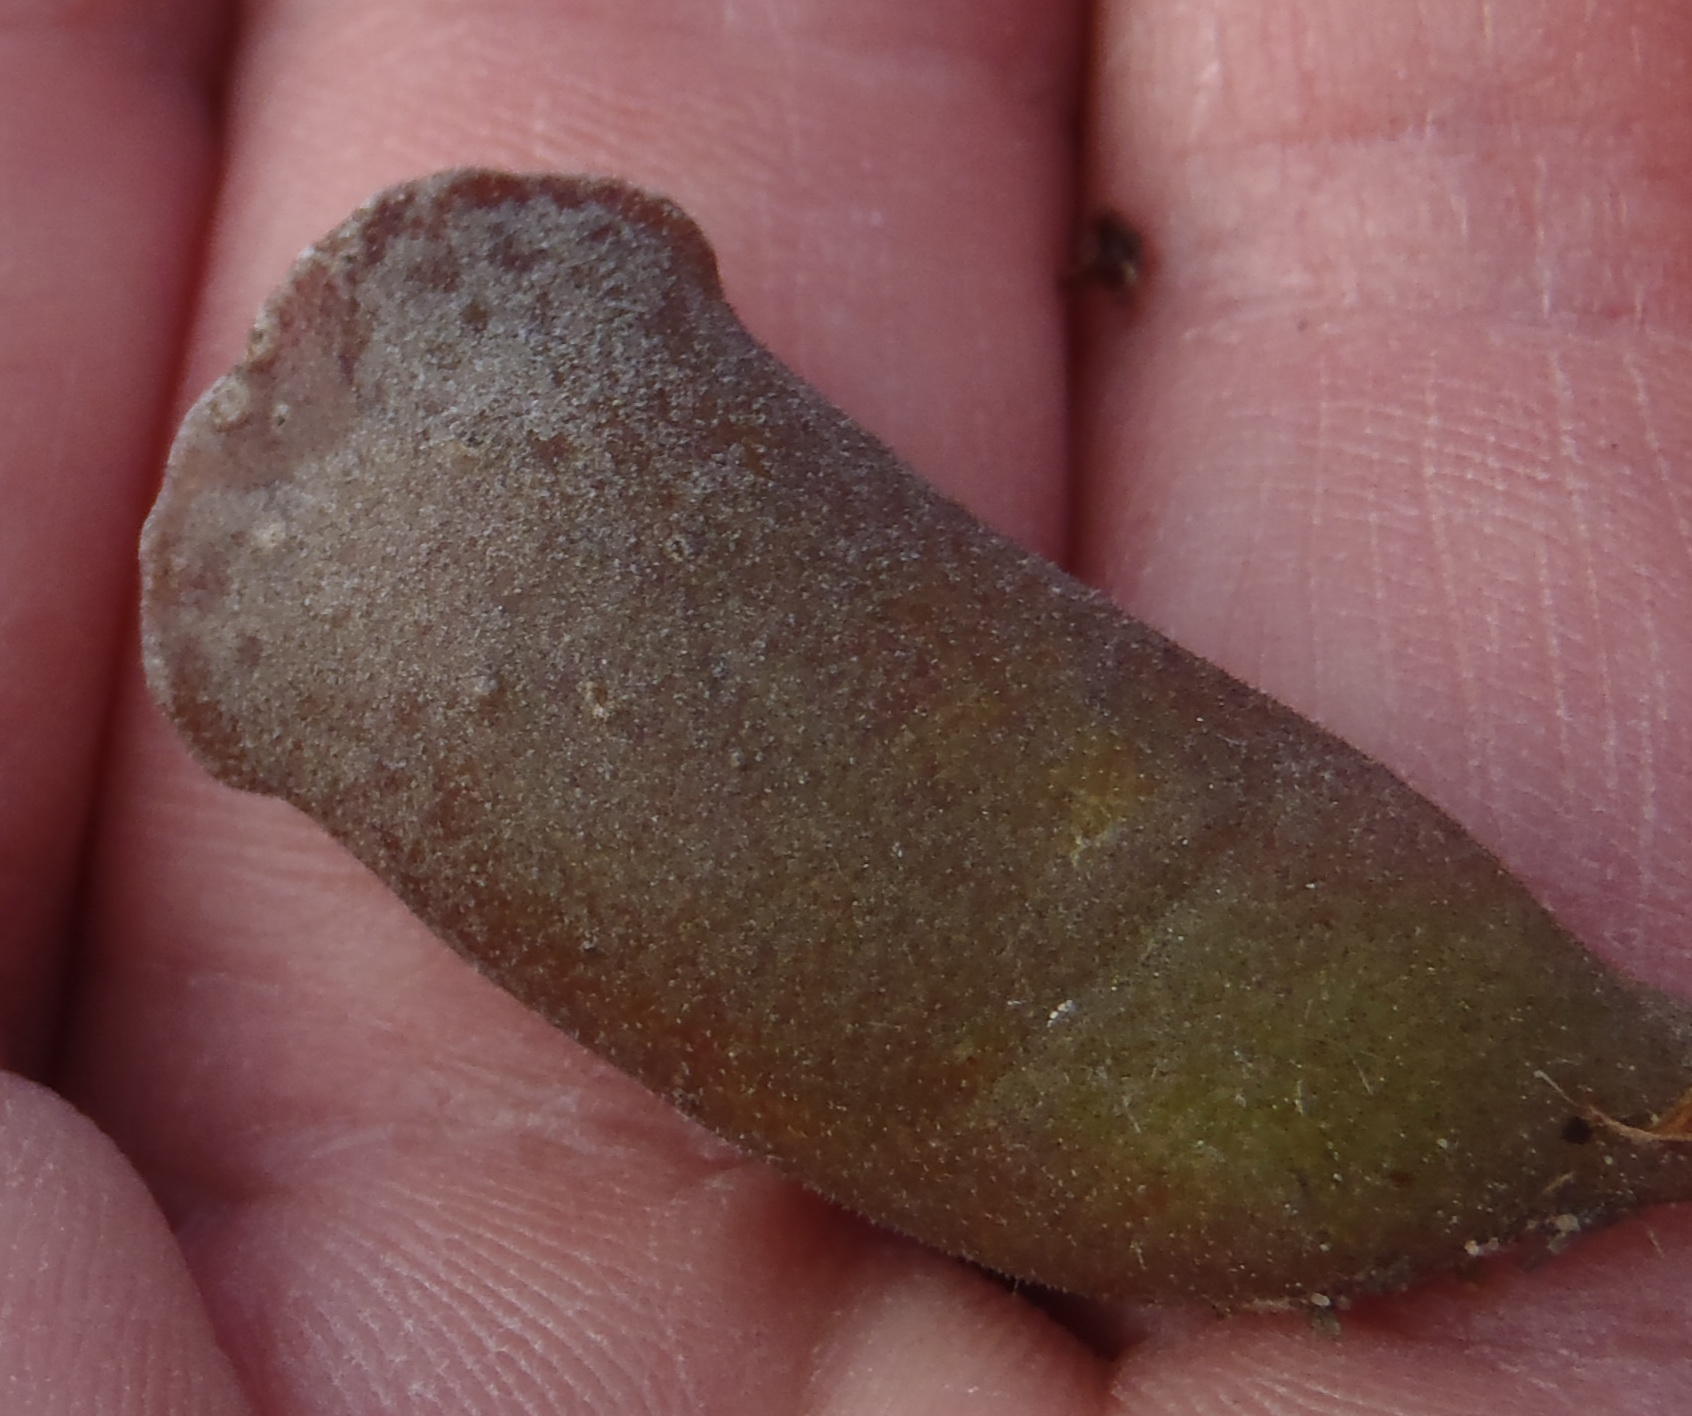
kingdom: Plantae
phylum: Tracheophyta
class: Magnoliopsida
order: Saxifragales
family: Crassulaceae
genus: Adromischus
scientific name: Adromischus cristatus
